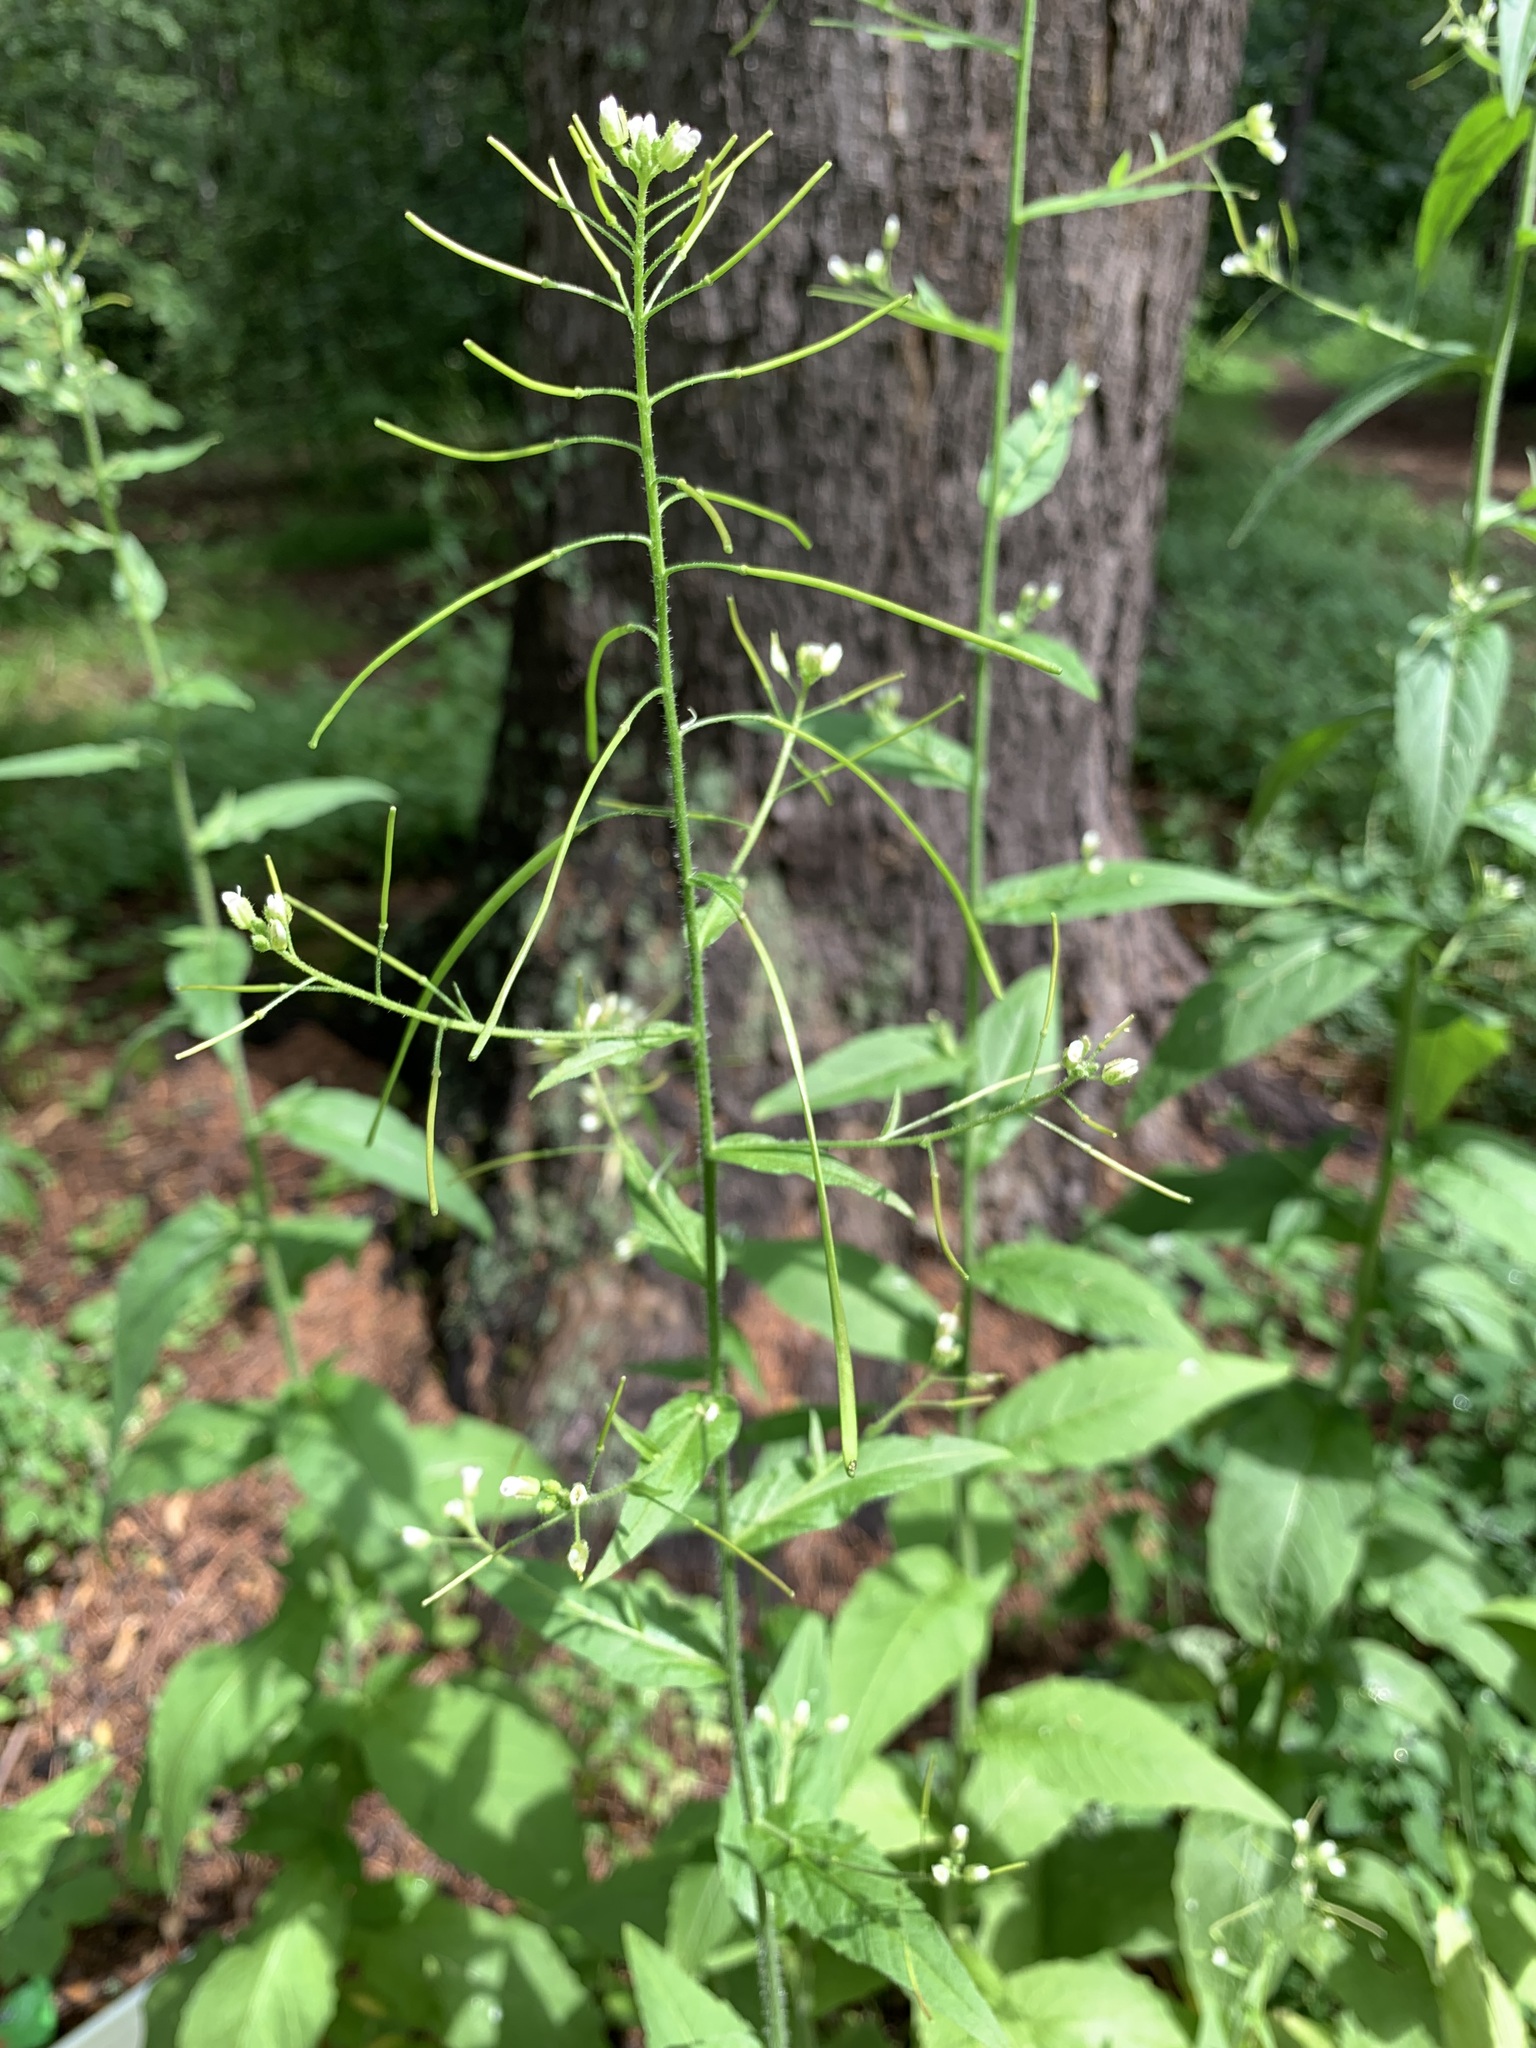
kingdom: Plantae
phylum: Tracheophyta
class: Magnoliopsida
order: Brassicales
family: Brassicaceae
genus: Catolobus
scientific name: Catolobus pendulus
